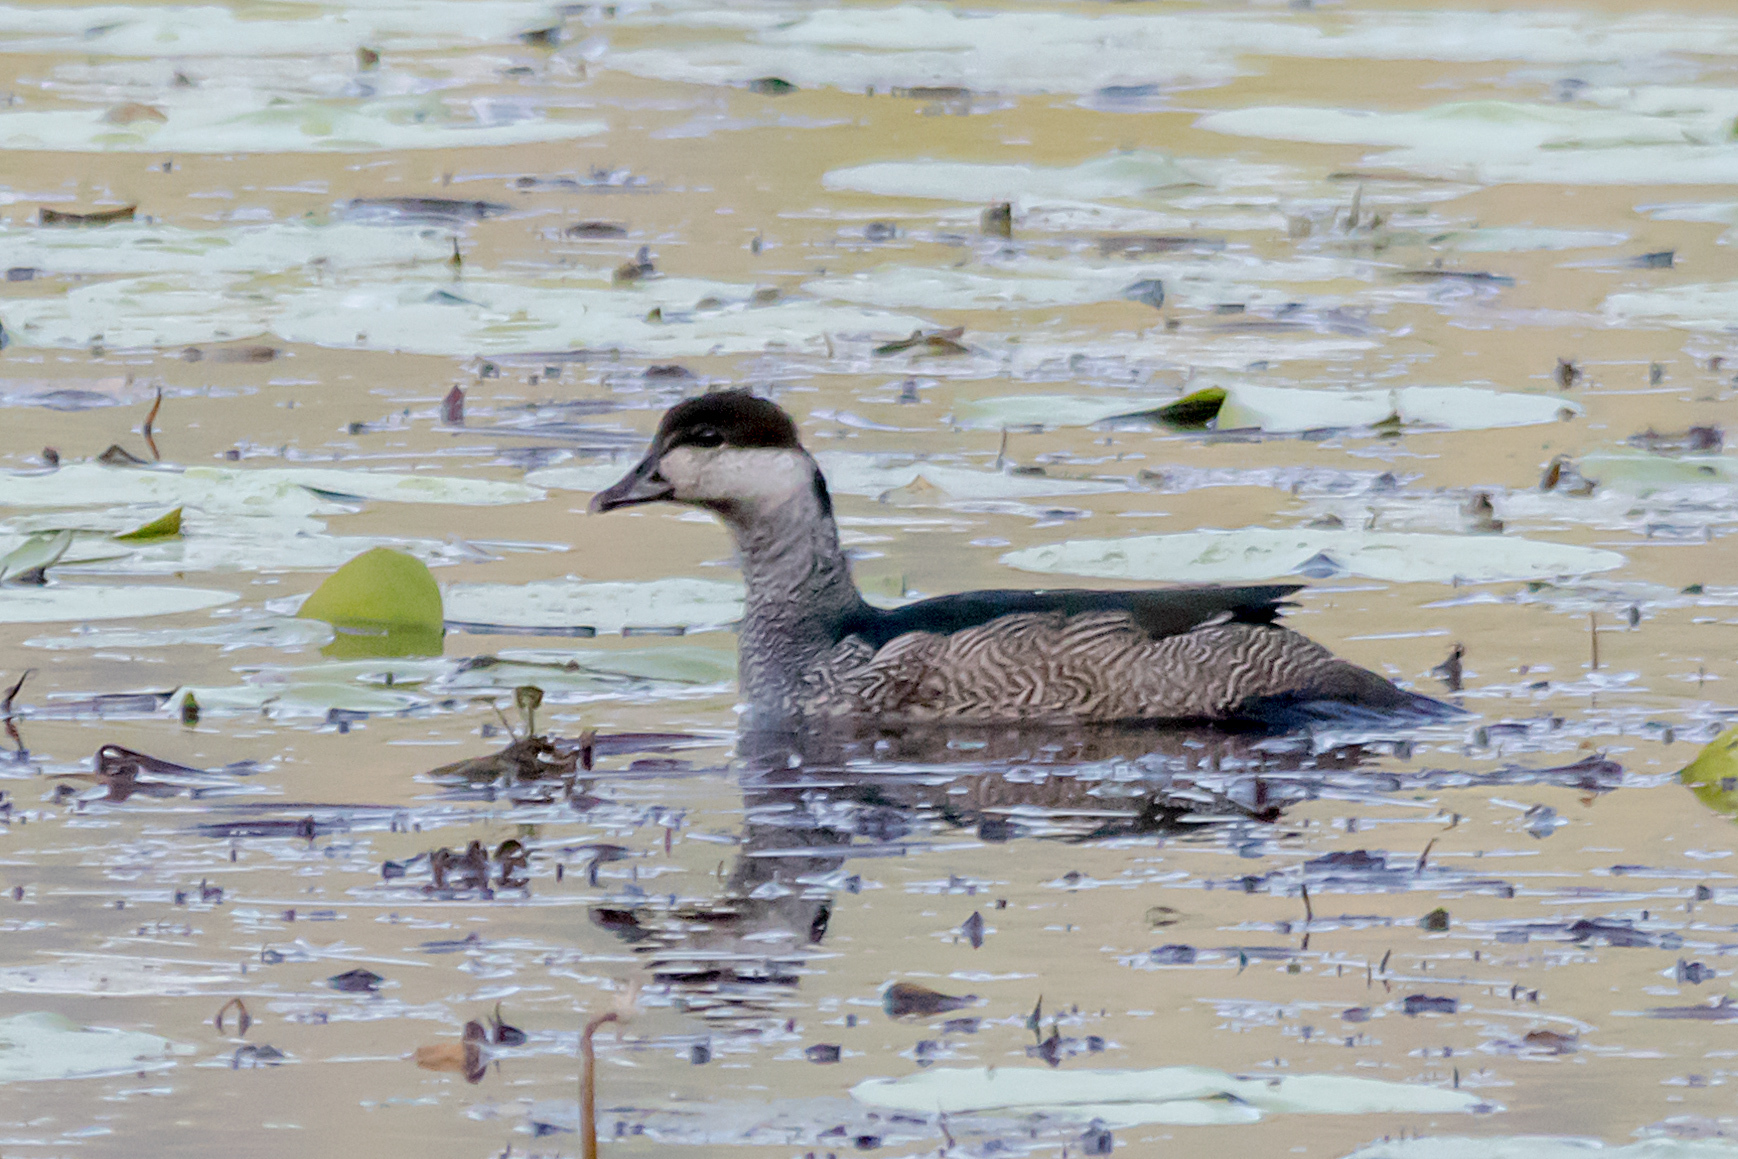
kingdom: Animalia
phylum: Chordata
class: Aves
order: Anseriformes
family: Anatidae
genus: Nettapus
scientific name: Nettapus pulchellus
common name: Green pygmy-goose
